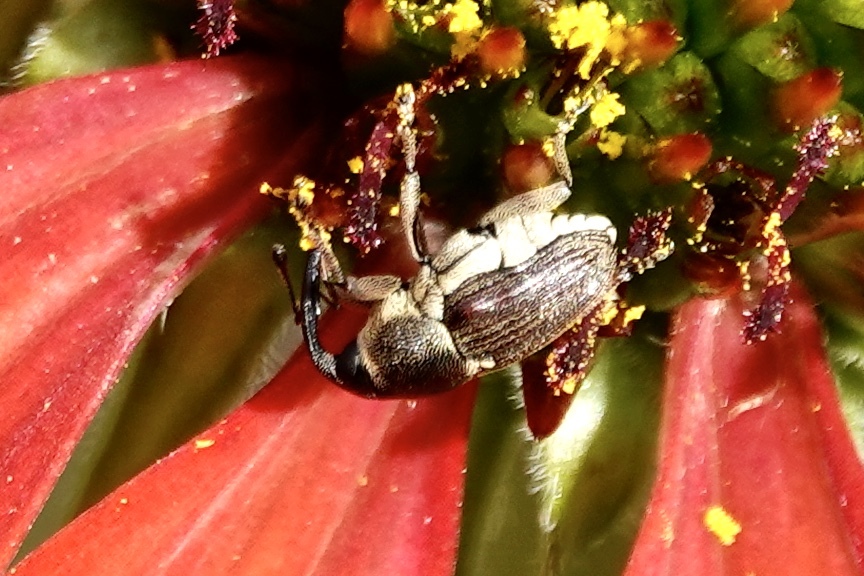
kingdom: Animalia
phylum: Arthropoda
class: Insecta
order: Coleoptera
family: Curculionidae
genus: Odontocorynus
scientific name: Odontocorynus umbellae
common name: Daisy flower weevil
